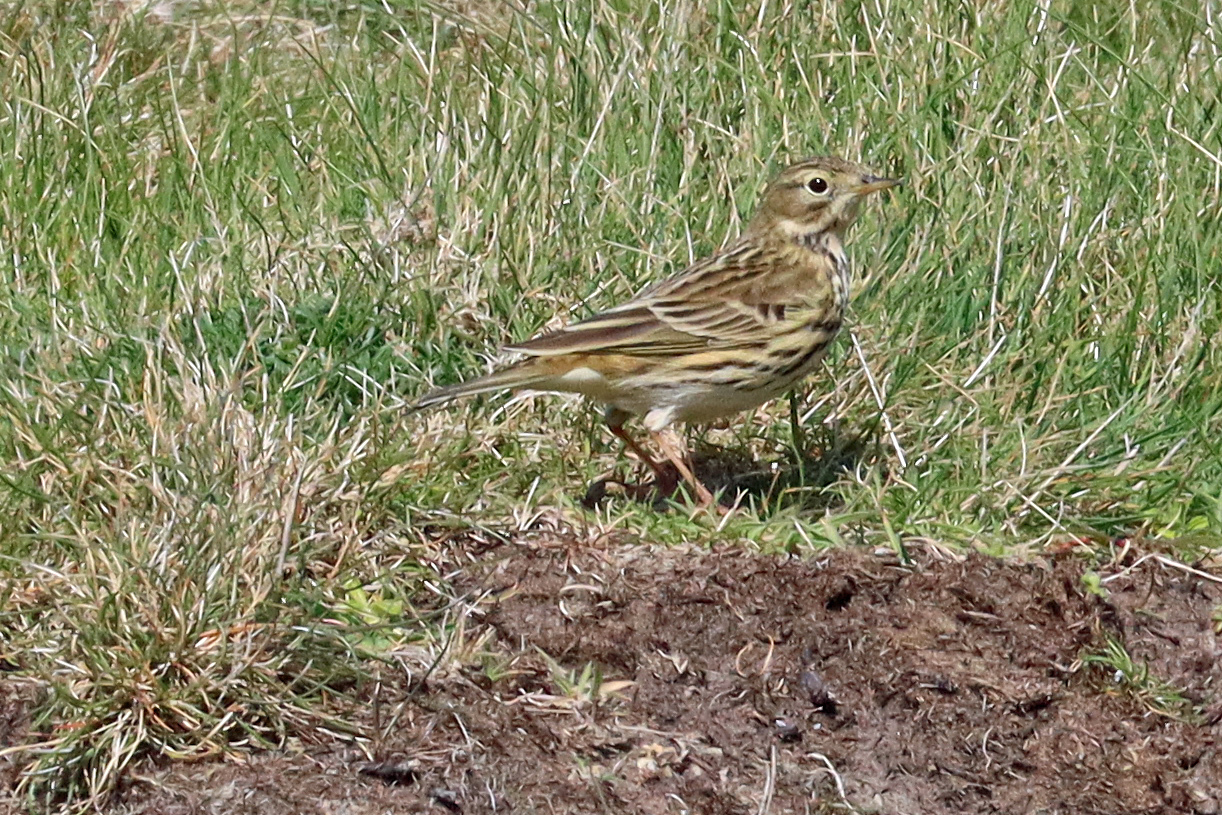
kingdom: Animalia
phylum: Chordata
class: Aves
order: Passeriformes
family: Motacillidae
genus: Anthus
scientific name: Anthus pratensis
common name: Meadow pipit
